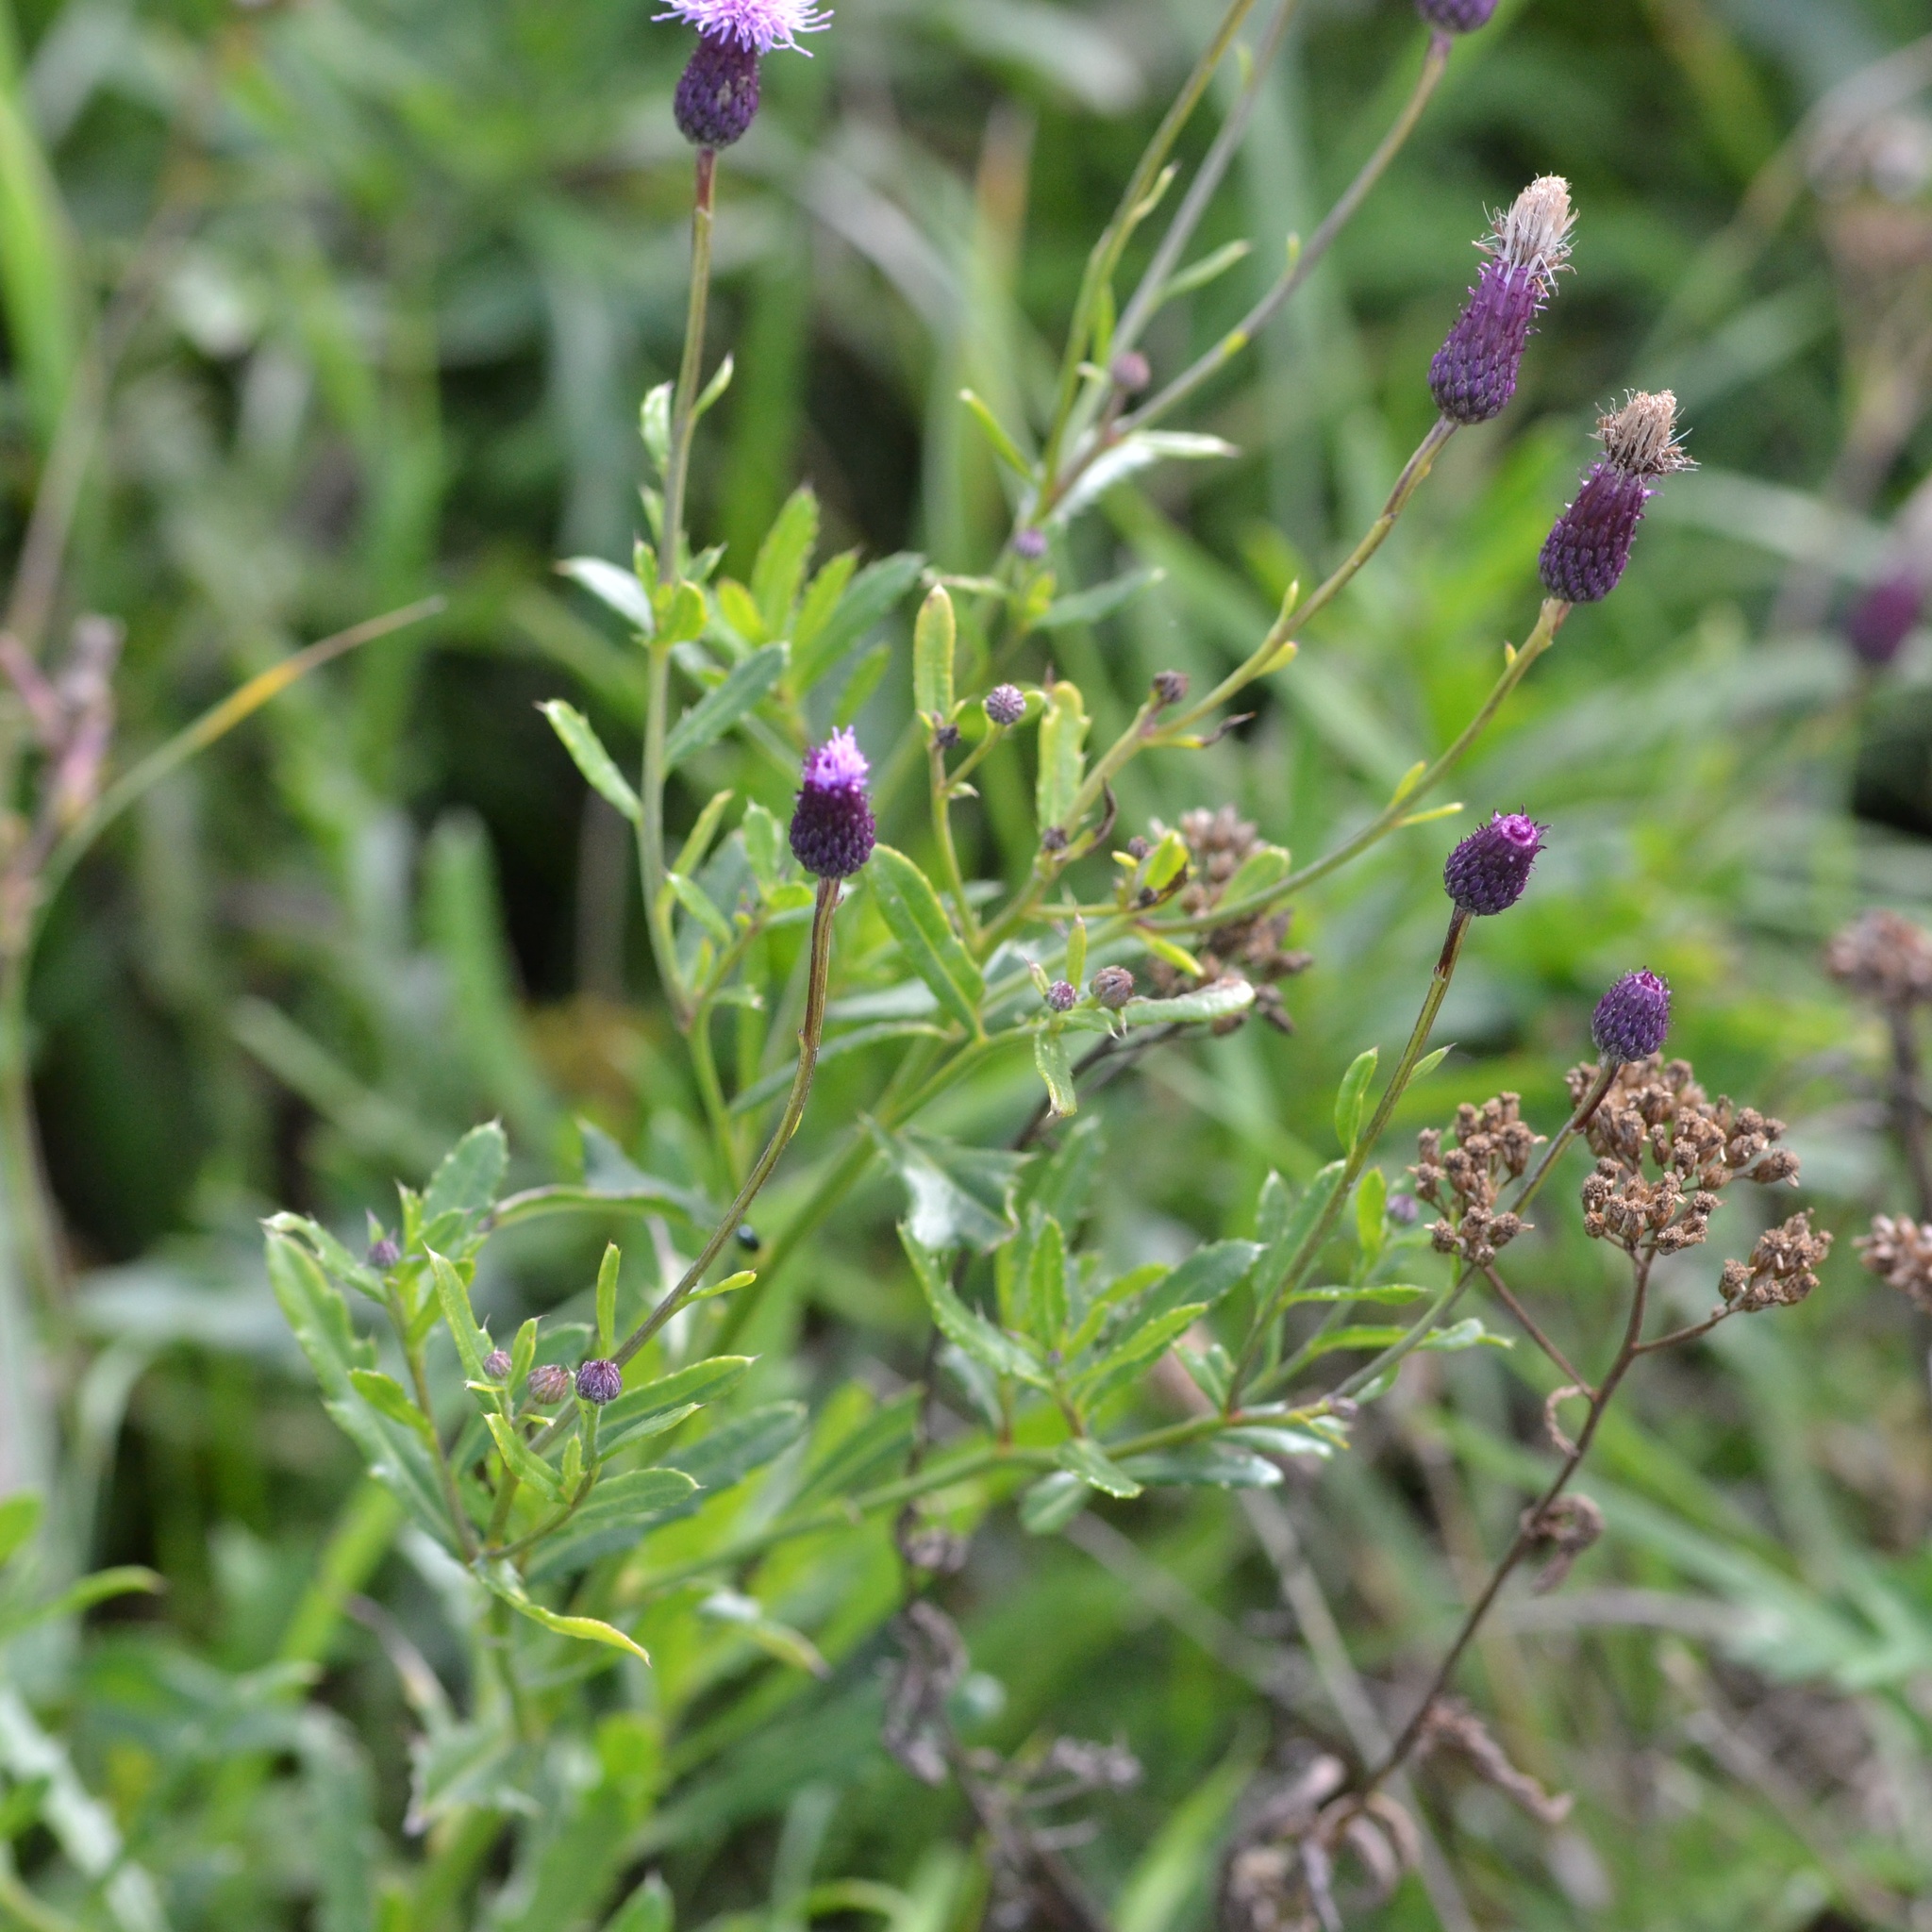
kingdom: Plantae
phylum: Tracheophyta
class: Magnoliopsida
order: Asterales
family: Asteraceae
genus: Cirsium
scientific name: Cirsium arvense
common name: Creeping thistle
